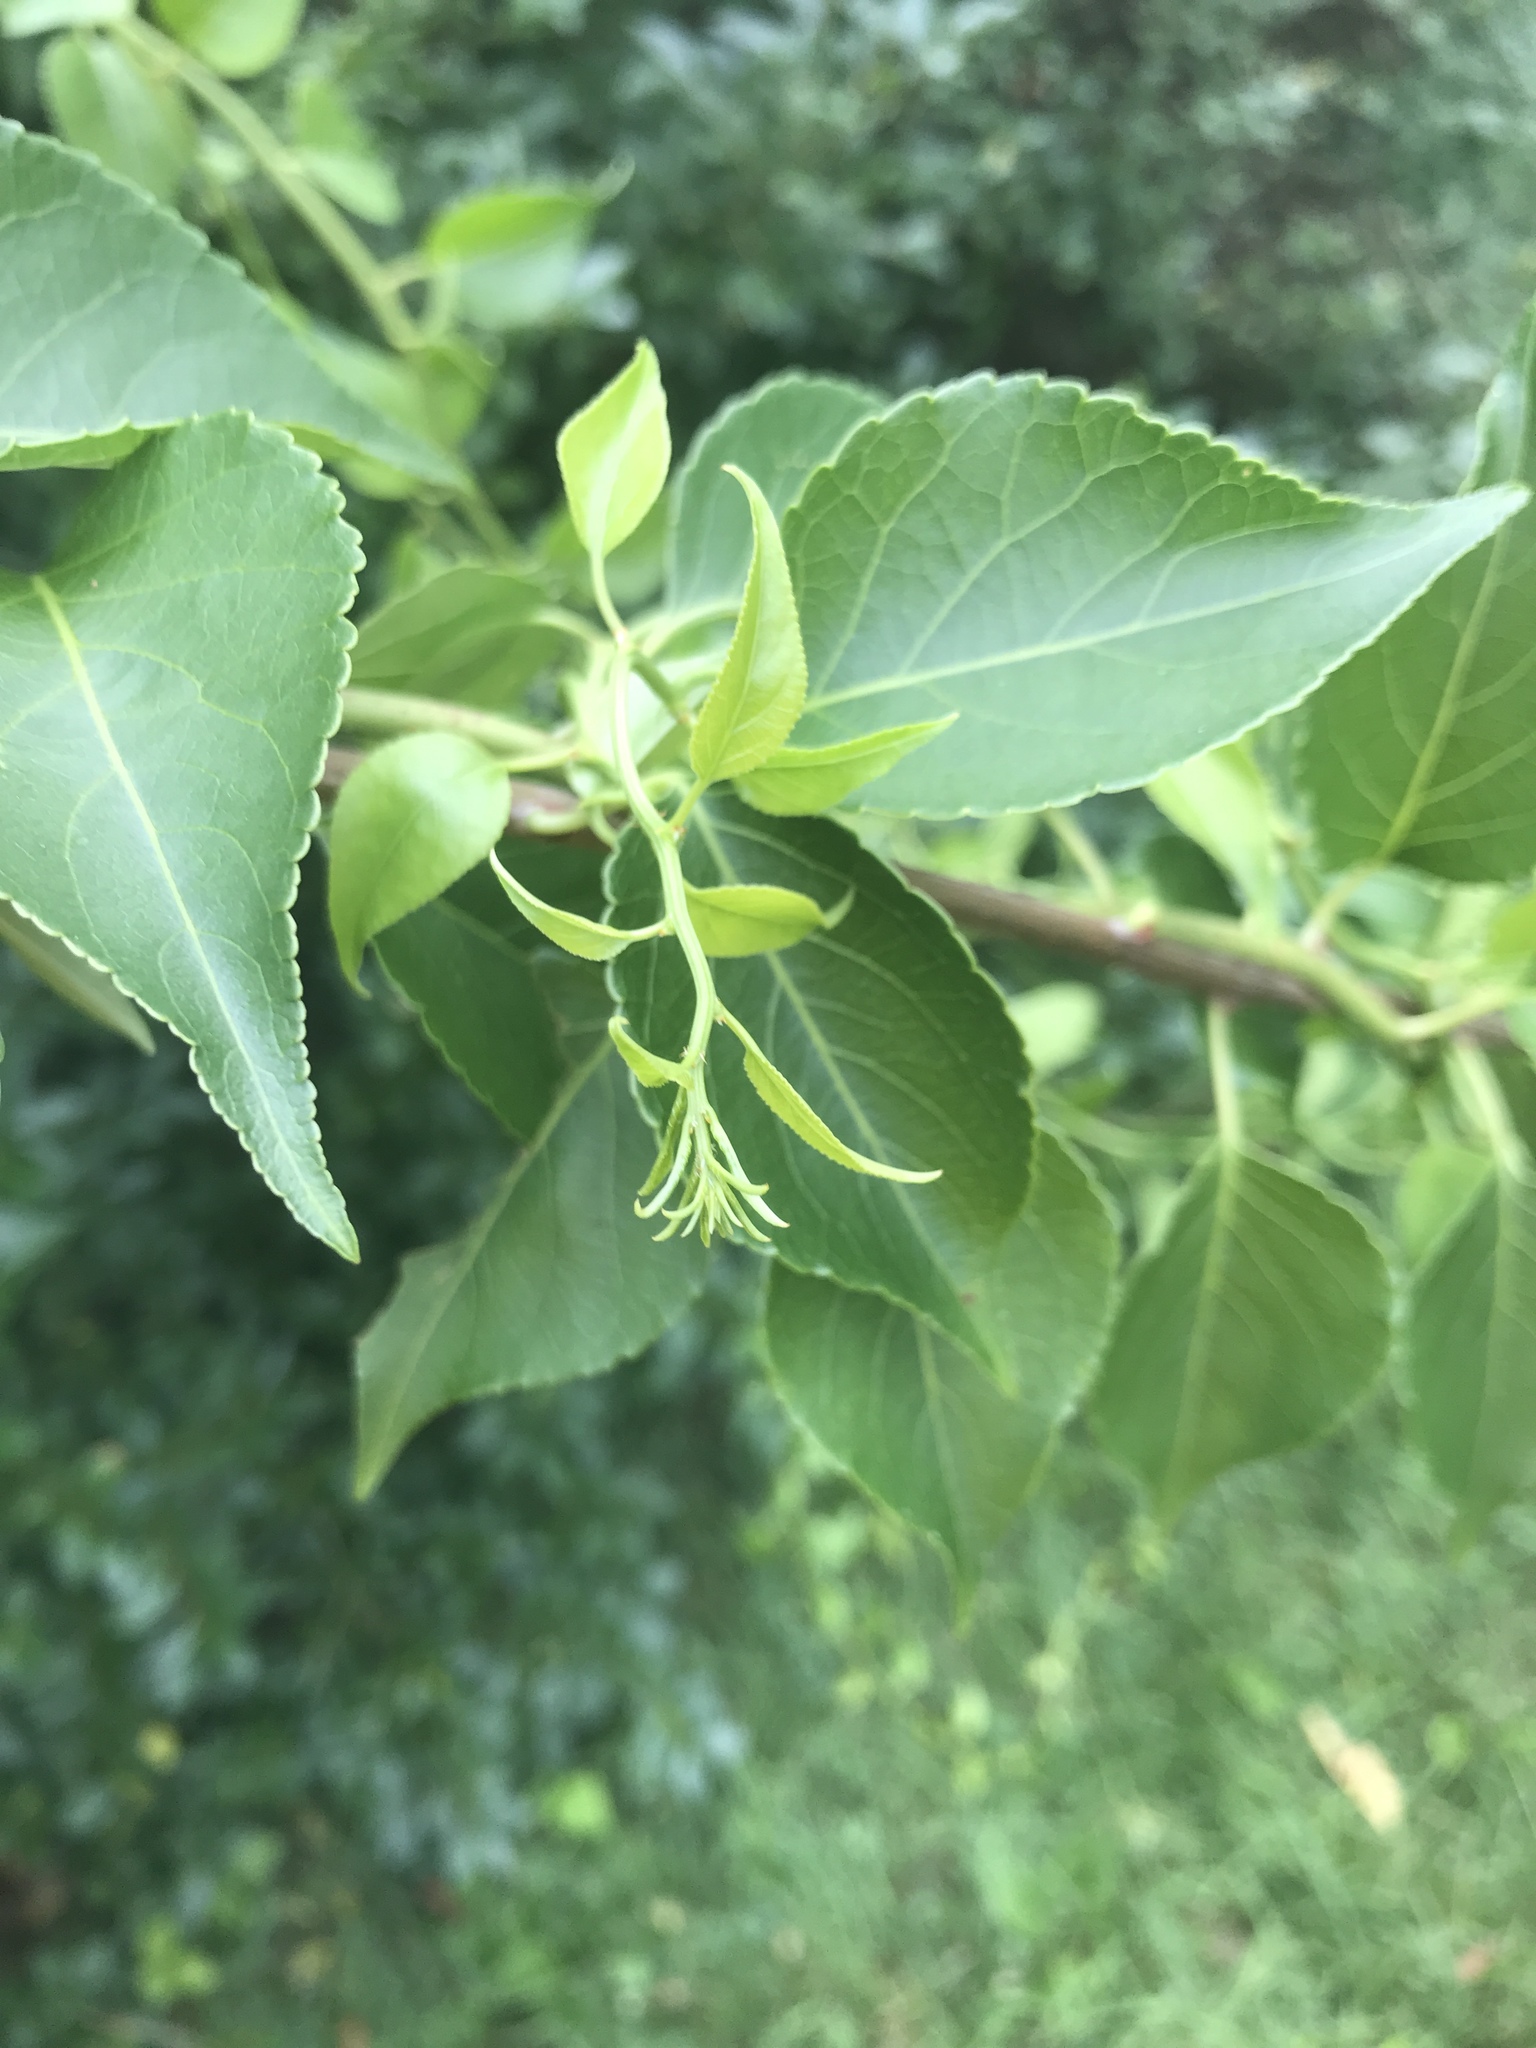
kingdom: Plantae
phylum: Tracheophyta
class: Magnoliopsida
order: Celastrales
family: Celastraceae
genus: Celastrus
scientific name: Celastrus orbiculatus
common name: Oriental bittersweet
